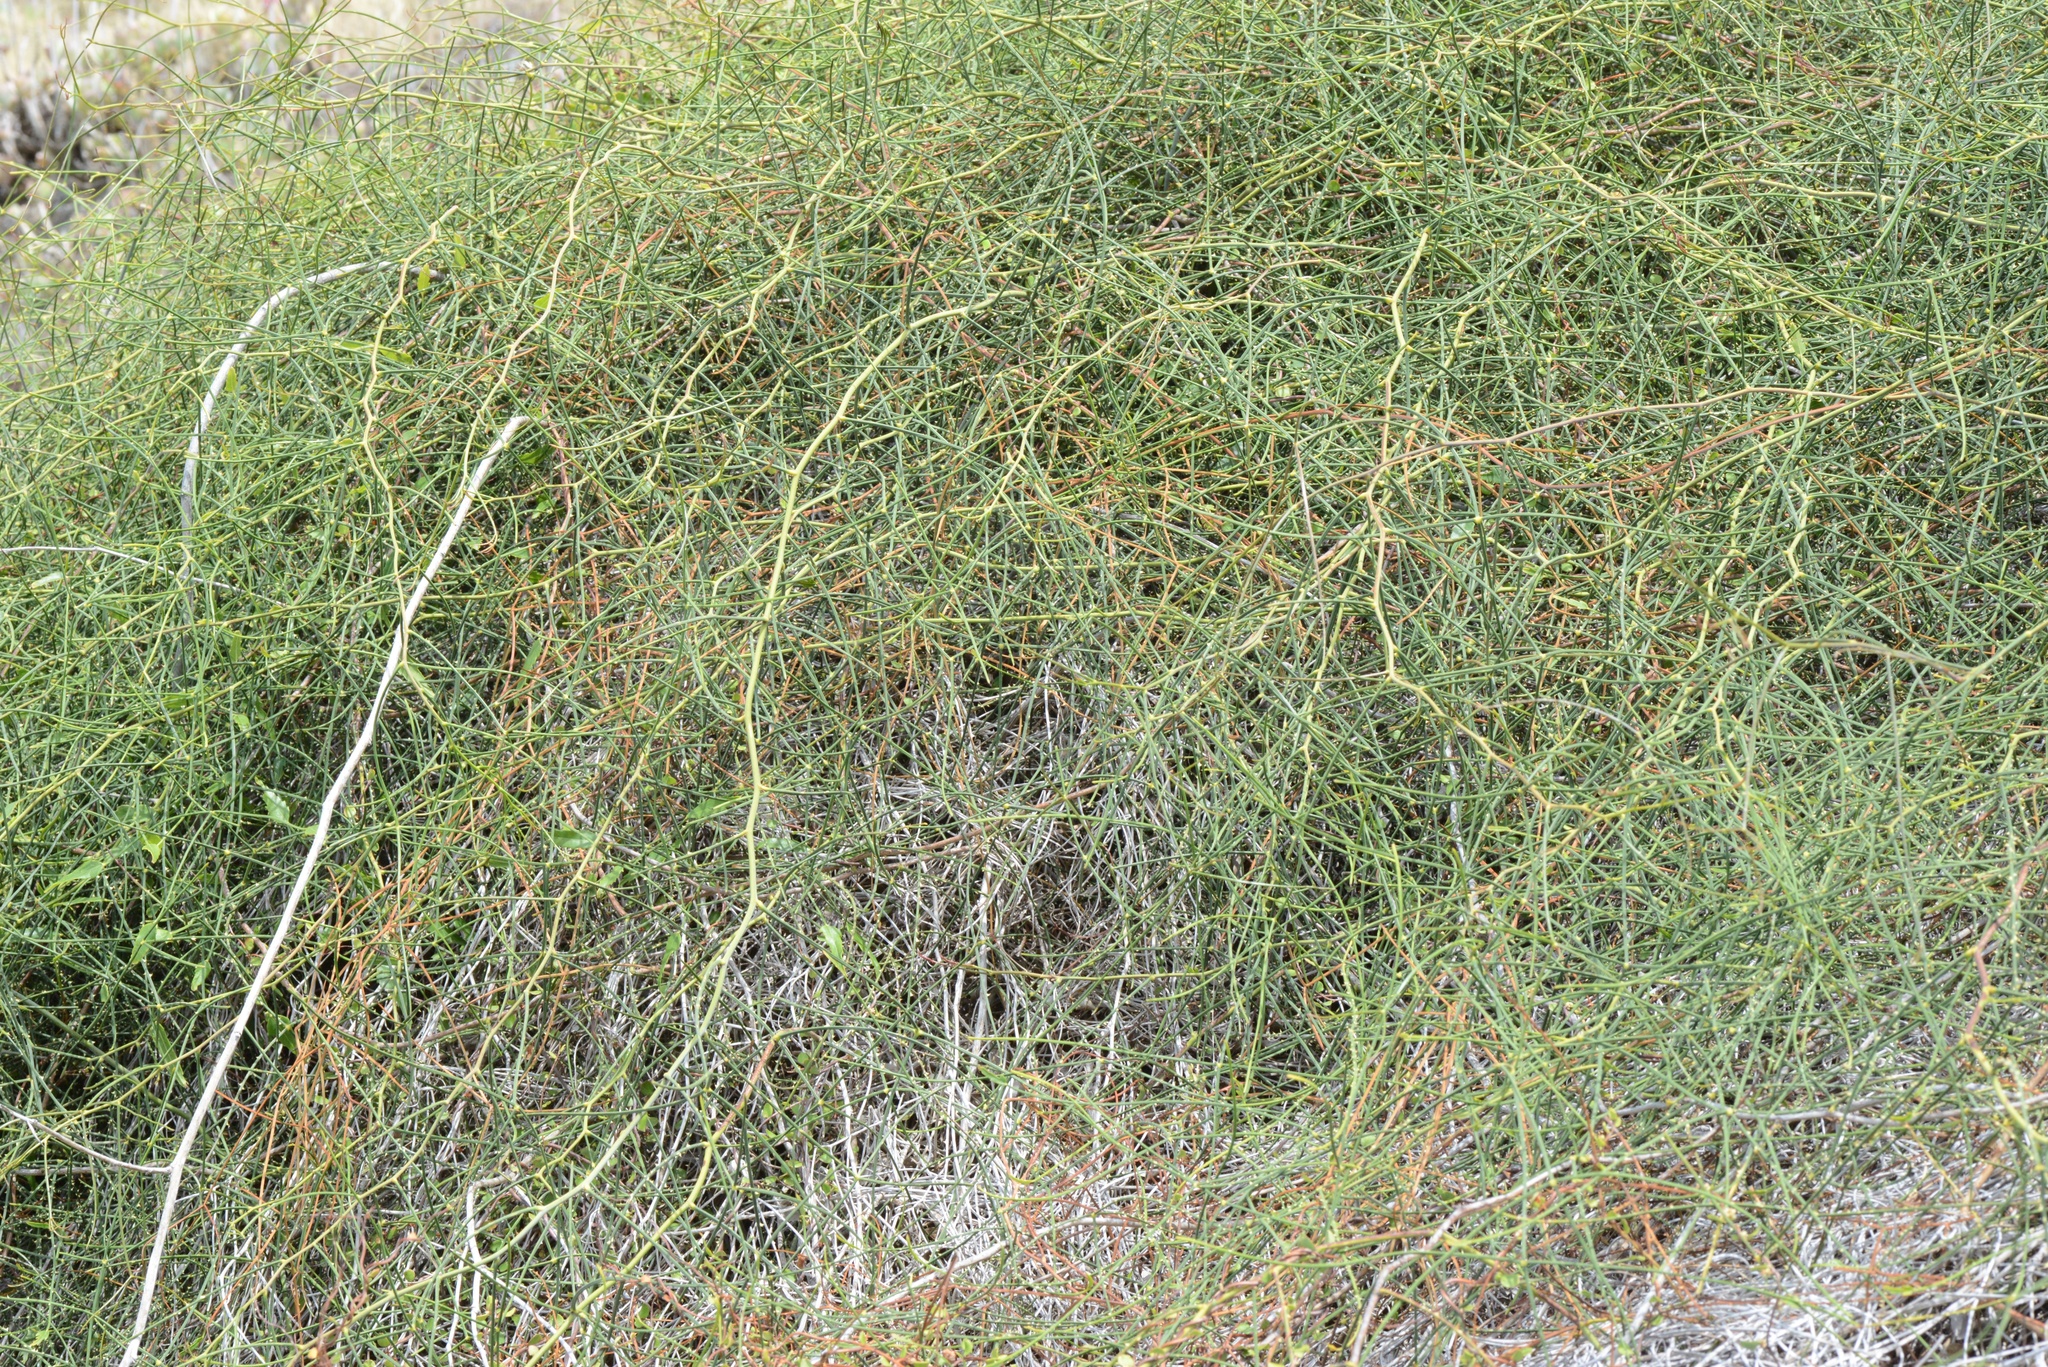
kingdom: Plantae
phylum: Tracheophyta
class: Magnoliopsida
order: Rosales
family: Rosaceae
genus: Rubus
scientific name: Rubus squarrosus
